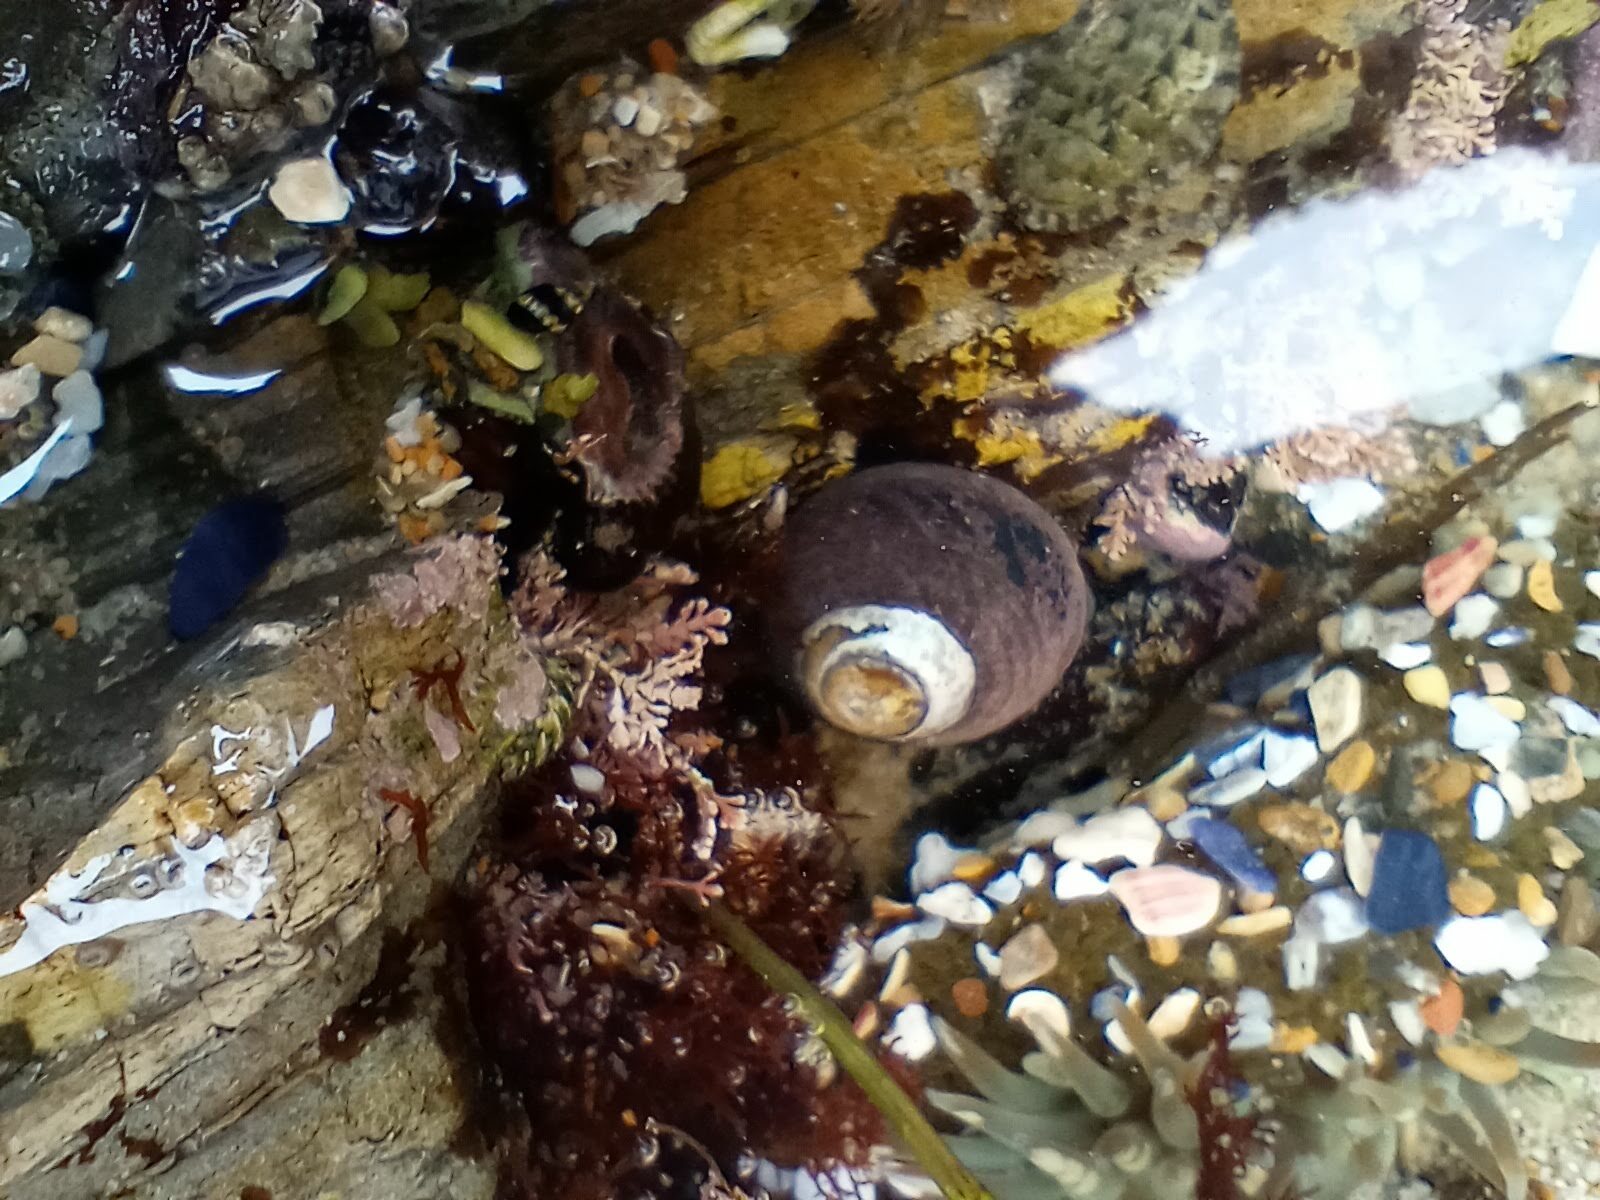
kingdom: Animalia
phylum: Mollusca
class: Gastropoda
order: Trochida
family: Tegulidae
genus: Tegula
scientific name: Tegula funebralis
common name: Black tegula
